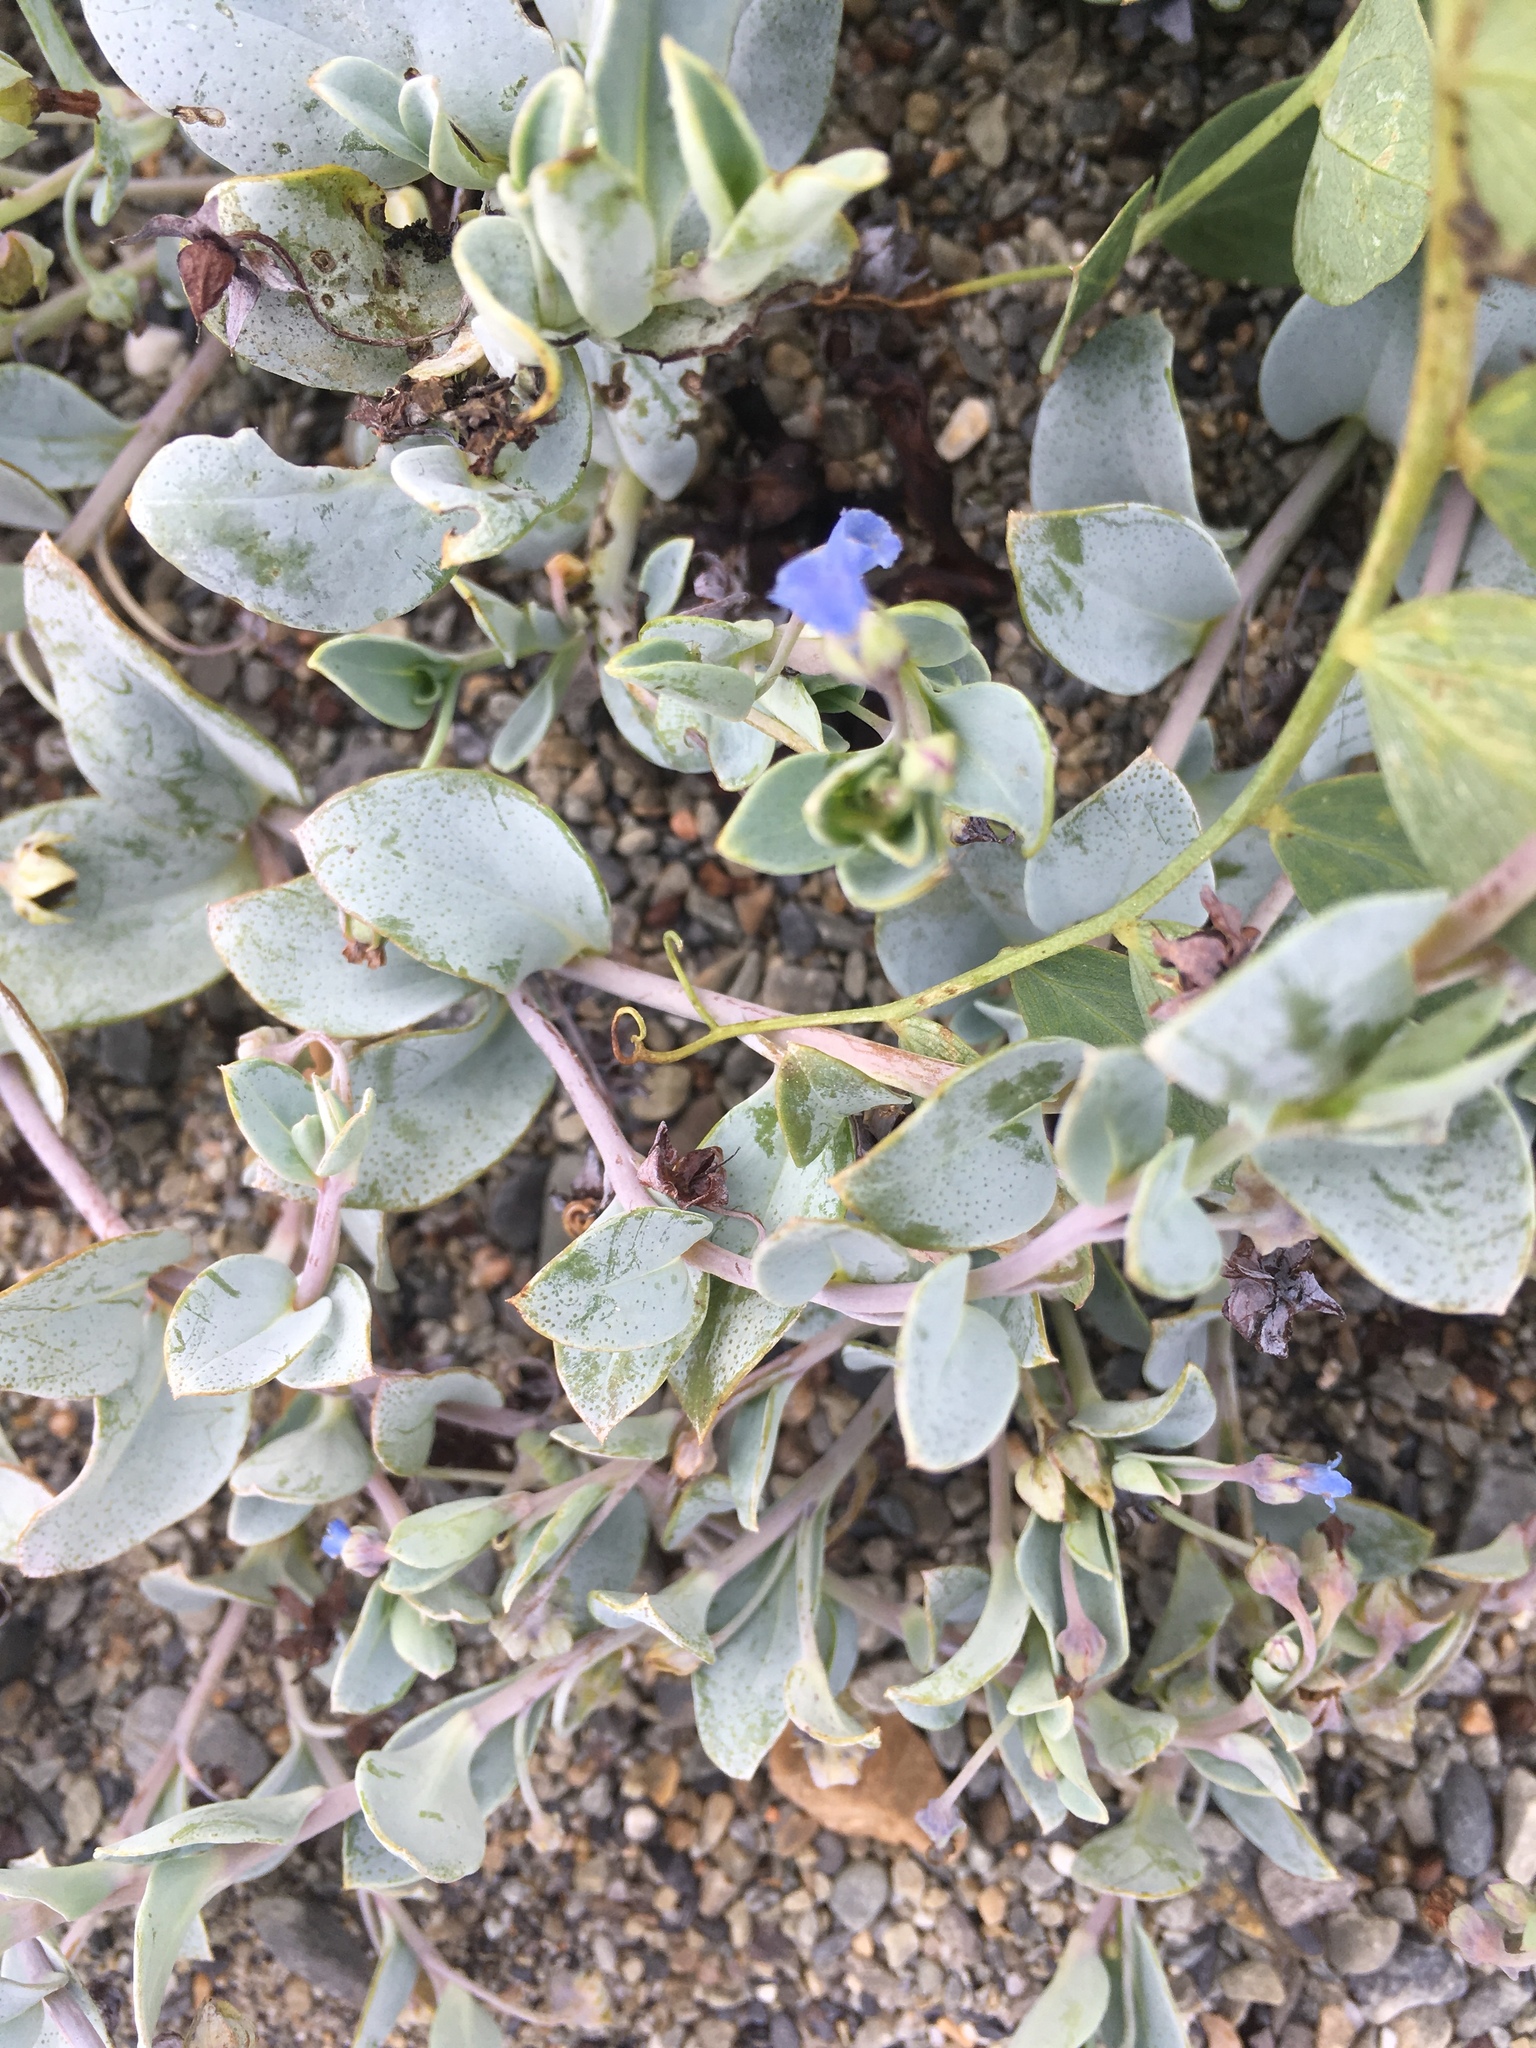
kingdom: Plantae
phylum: Tracheophyta
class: Magnoliopsida
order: Boraginales
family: Boraginaceae
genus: Mertensia
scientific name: Mertensia maritima
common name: Oysterplant
